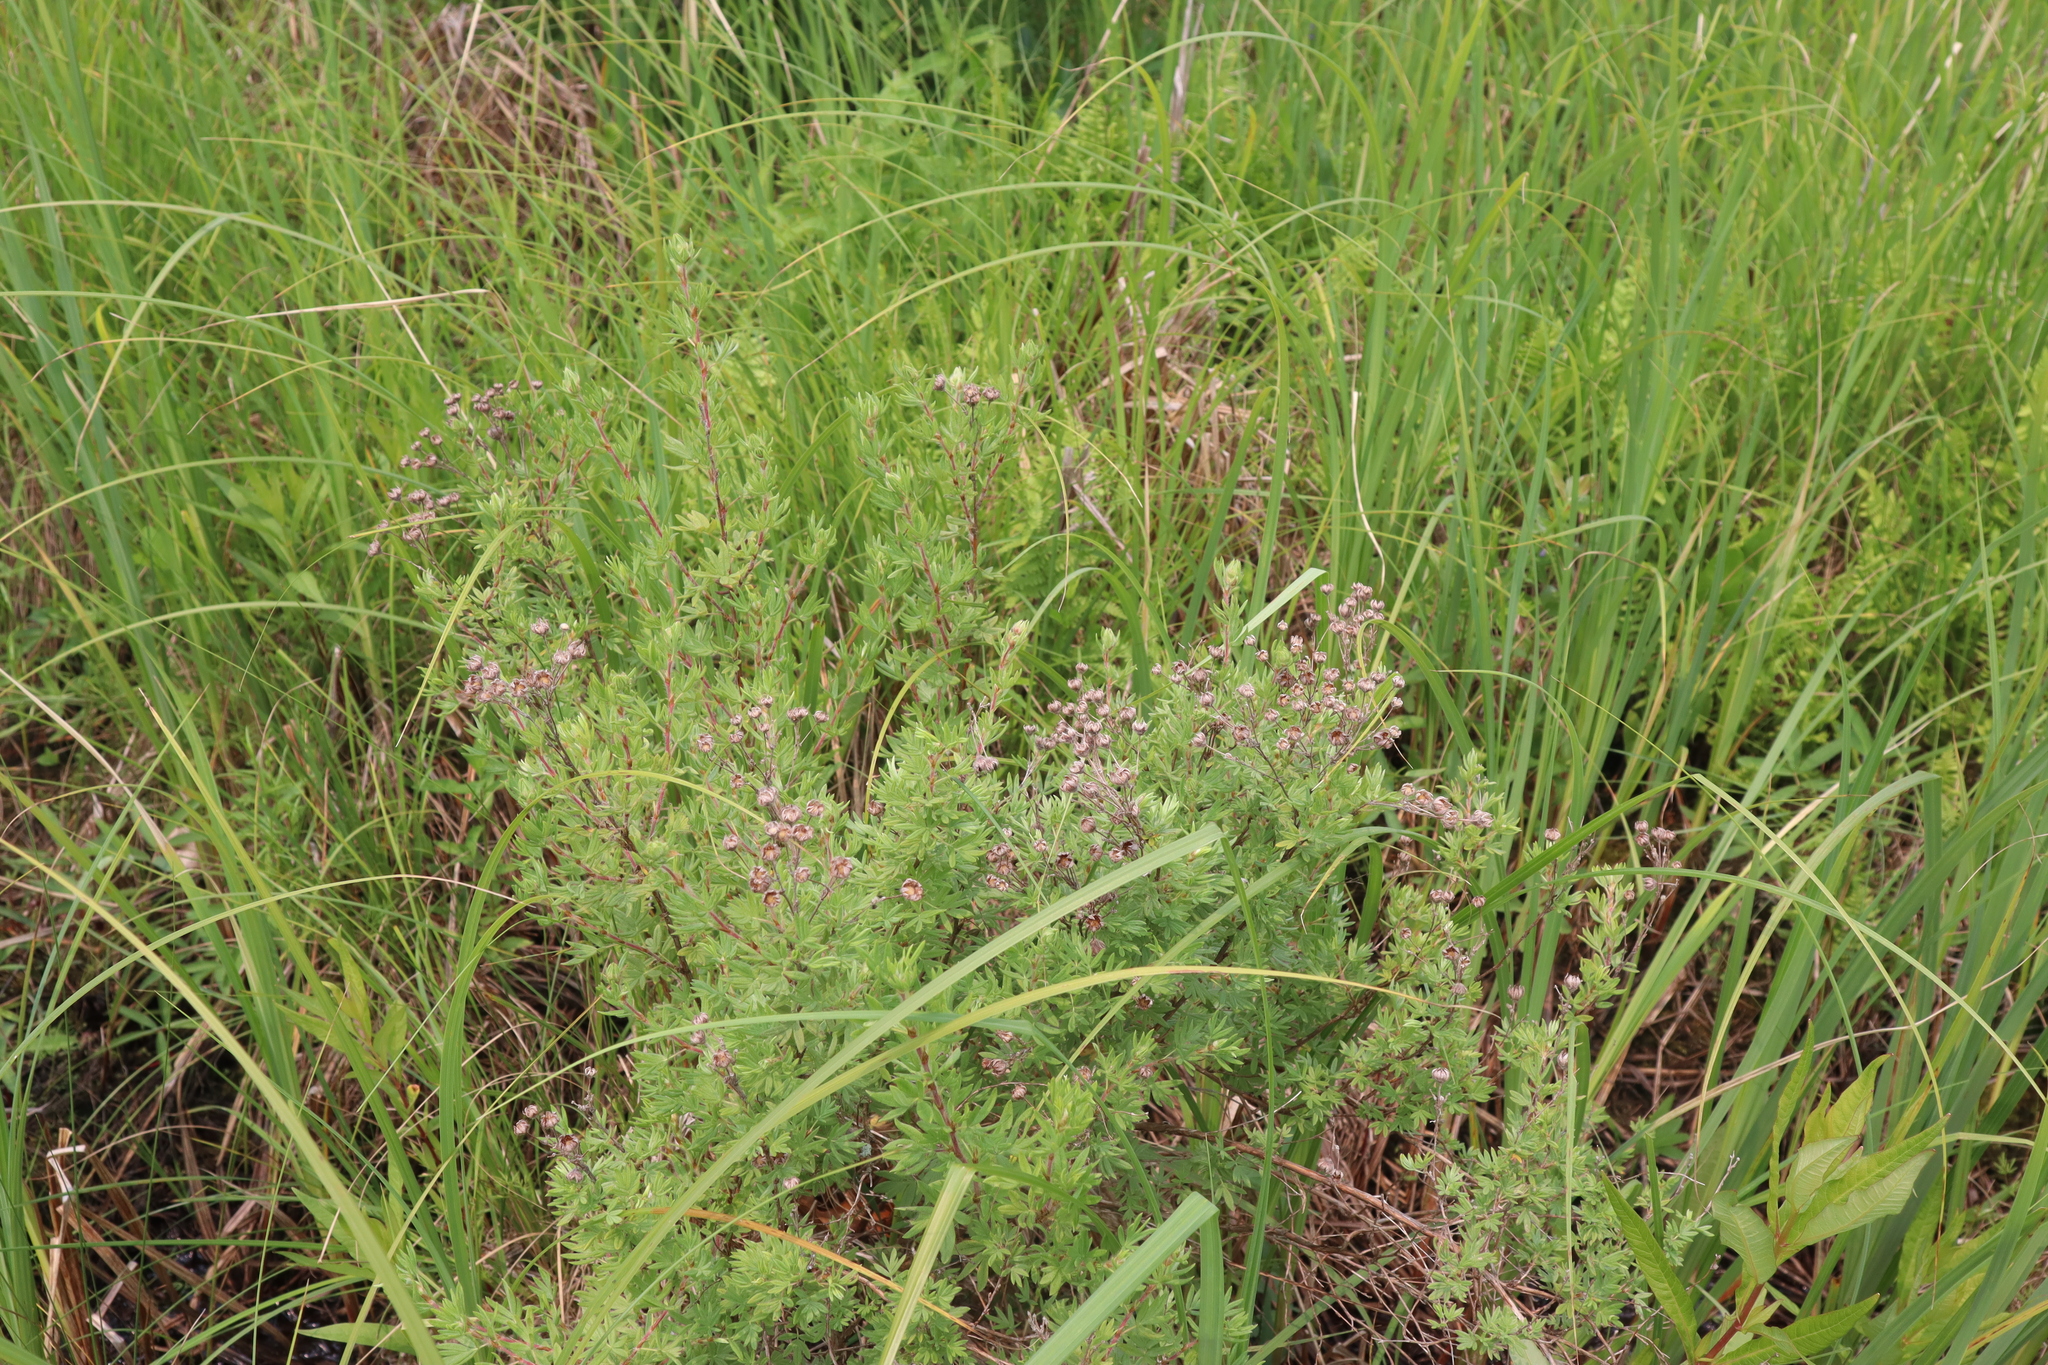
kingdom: Plantae
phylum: Tracheophyta
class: Magnoliopsida
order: Rosales
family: Rosaceae
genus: Dasiphora
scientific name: Dasiphora fruticosa
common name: Shrubby cinquefoil
